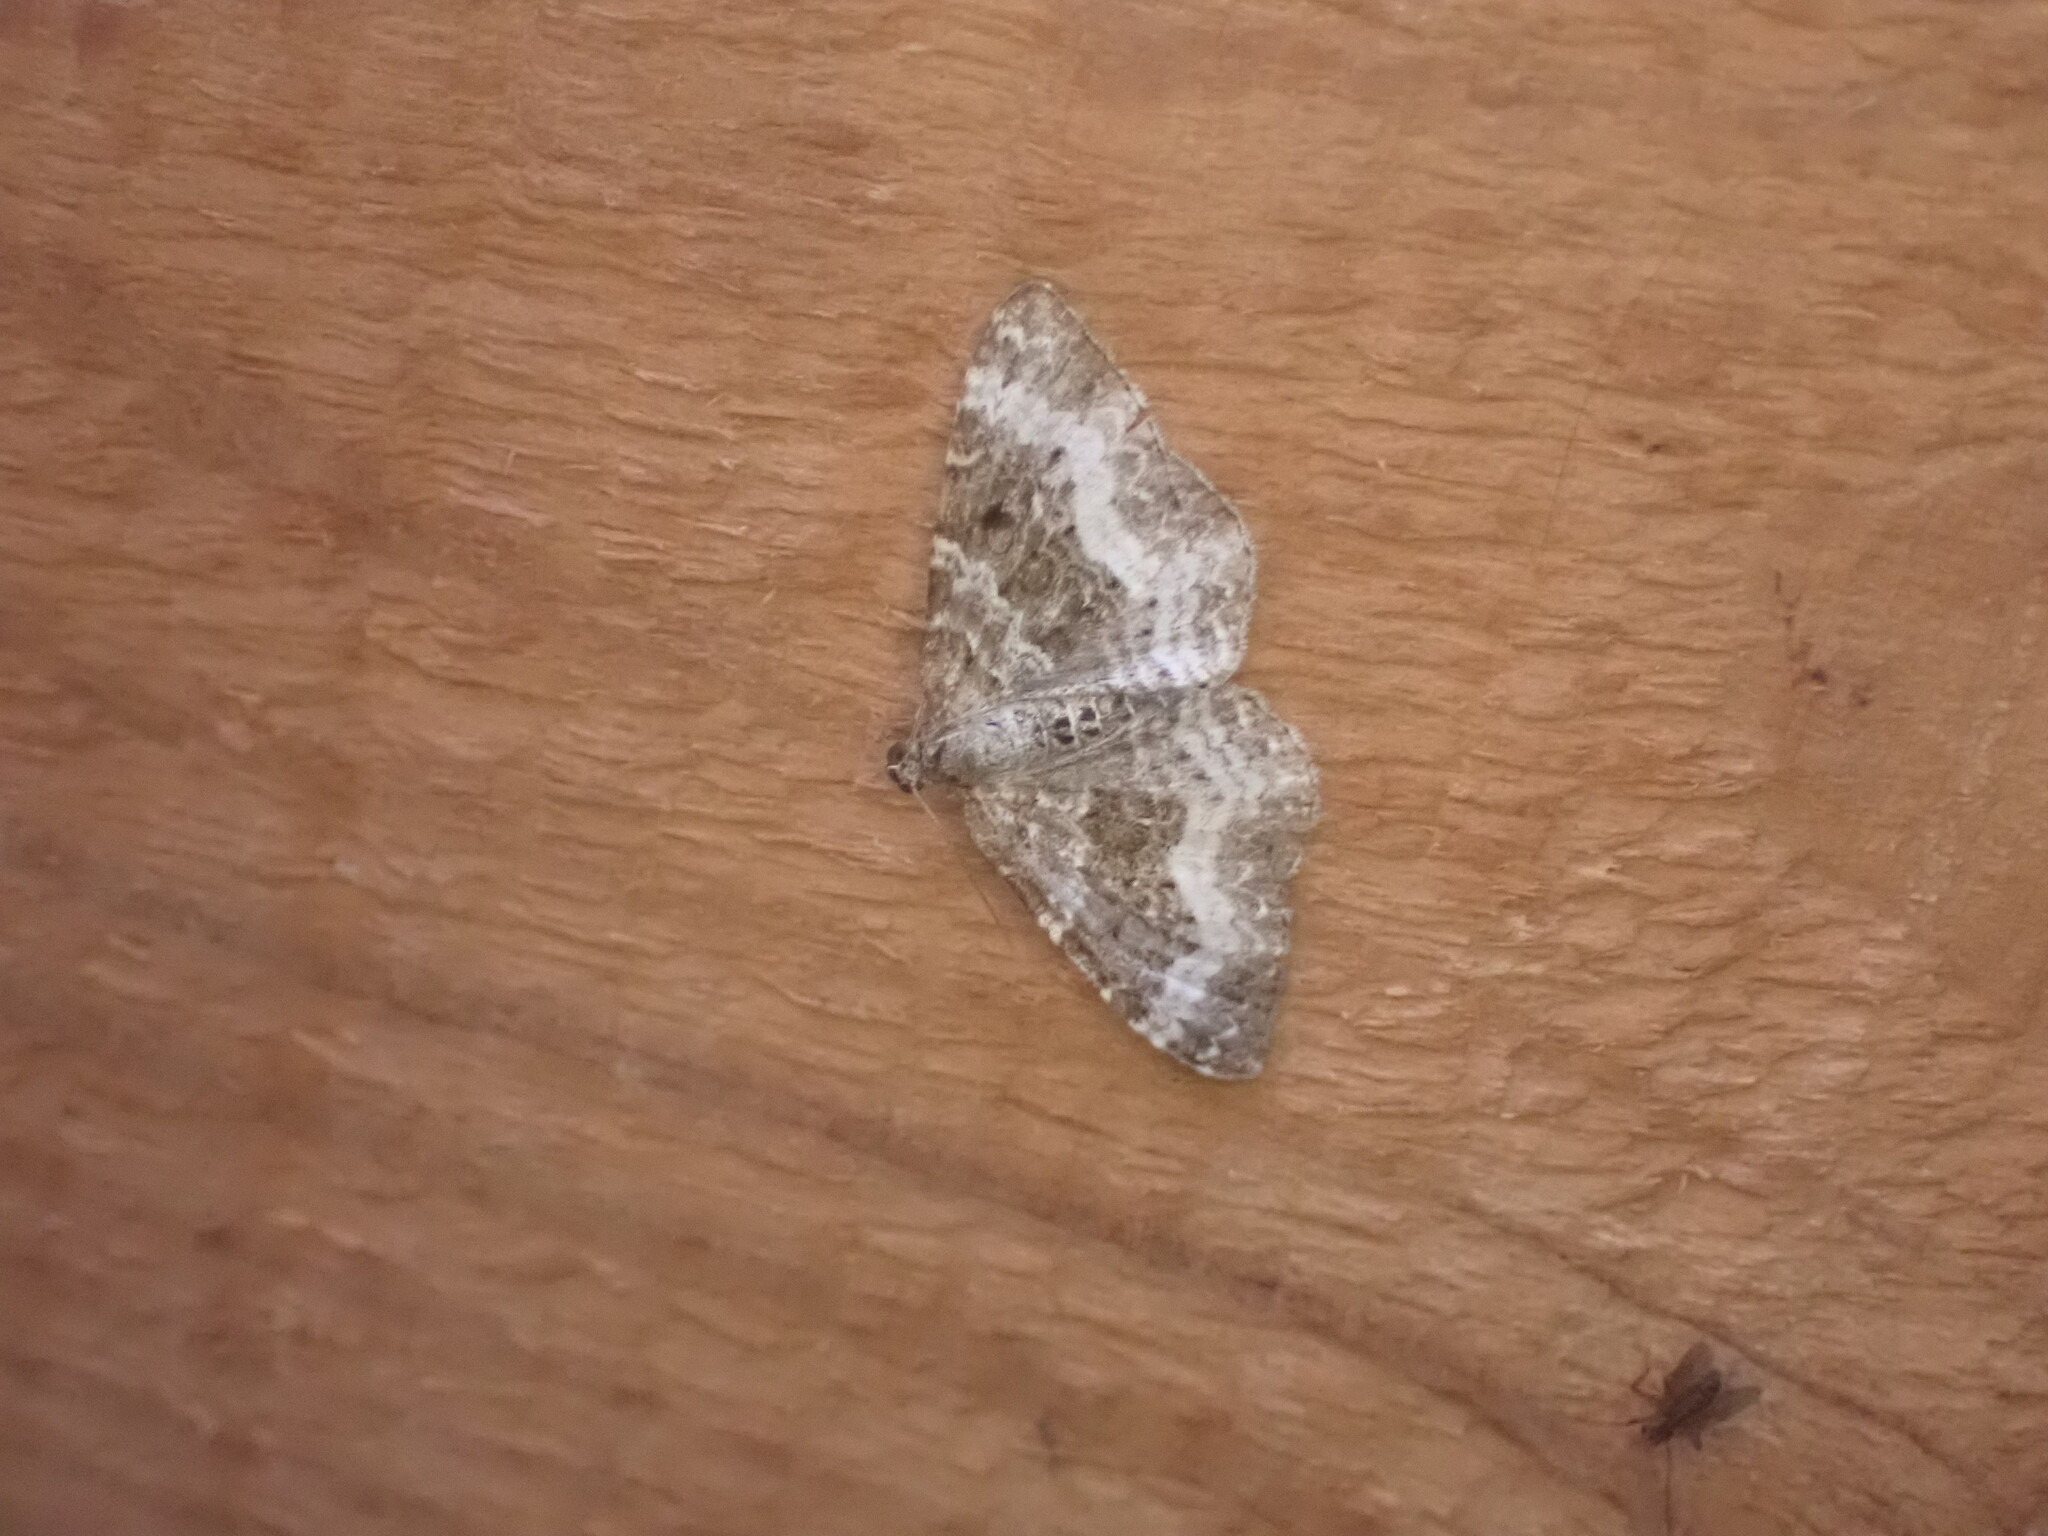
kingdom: Animalia
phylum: Arthropoda
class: Insecta
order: Lepidoptera
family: Geometridae
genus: Epirrhoe
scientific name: Epirrhoe alternata
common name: Common carpet
